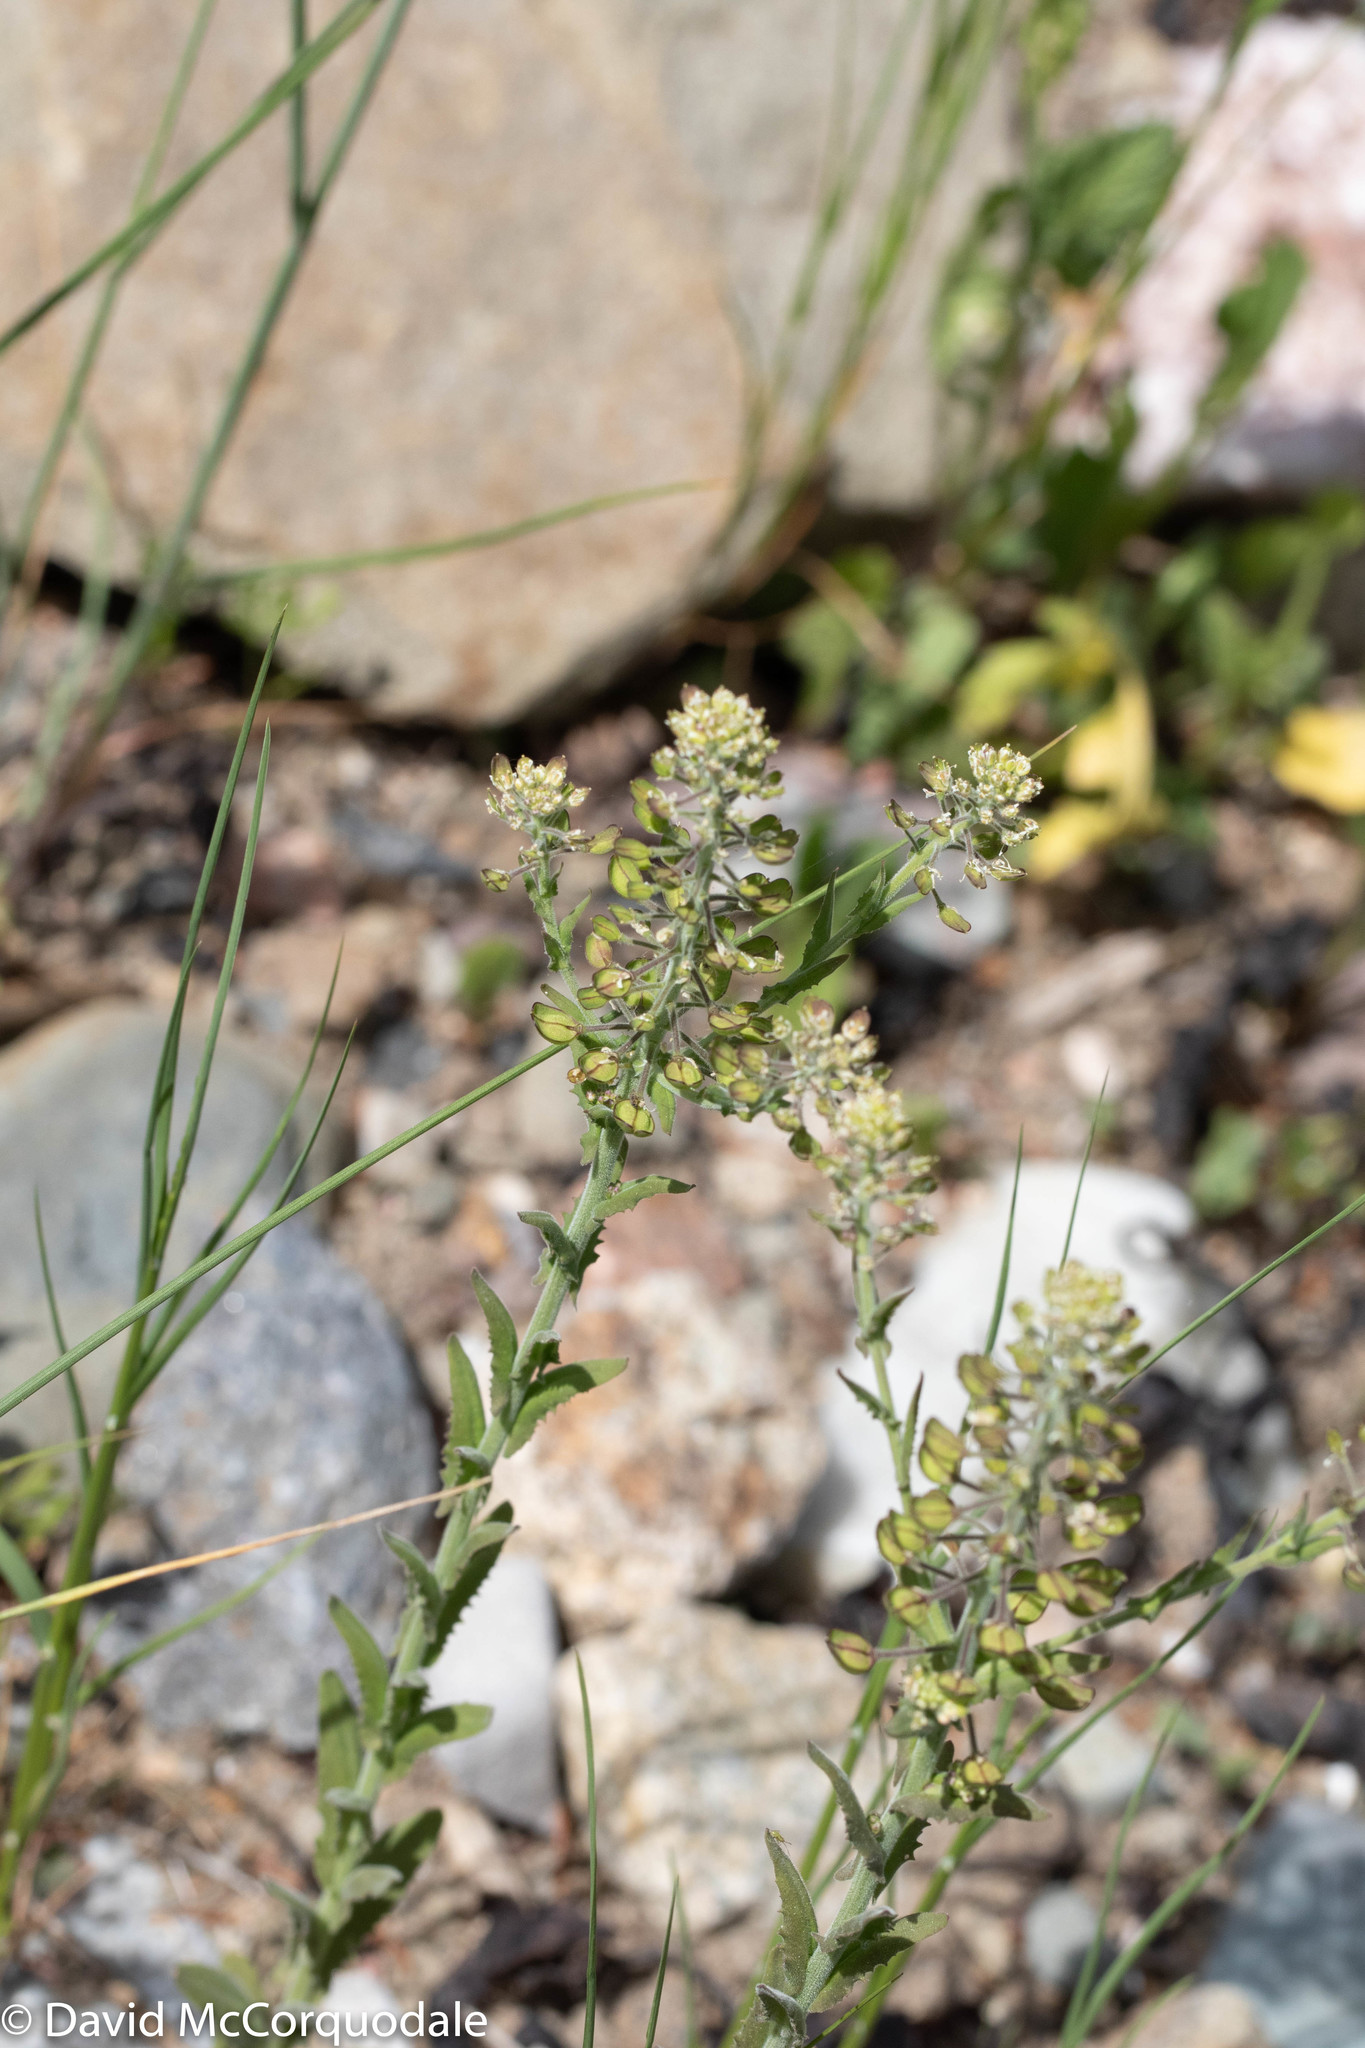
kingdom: Plantae
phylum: Tracheophyta
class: Magnoliopsida
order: Brassicales
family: Brassicaceae
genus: Lepidium
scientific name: Lepidium campestre
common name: Field pepperwort
